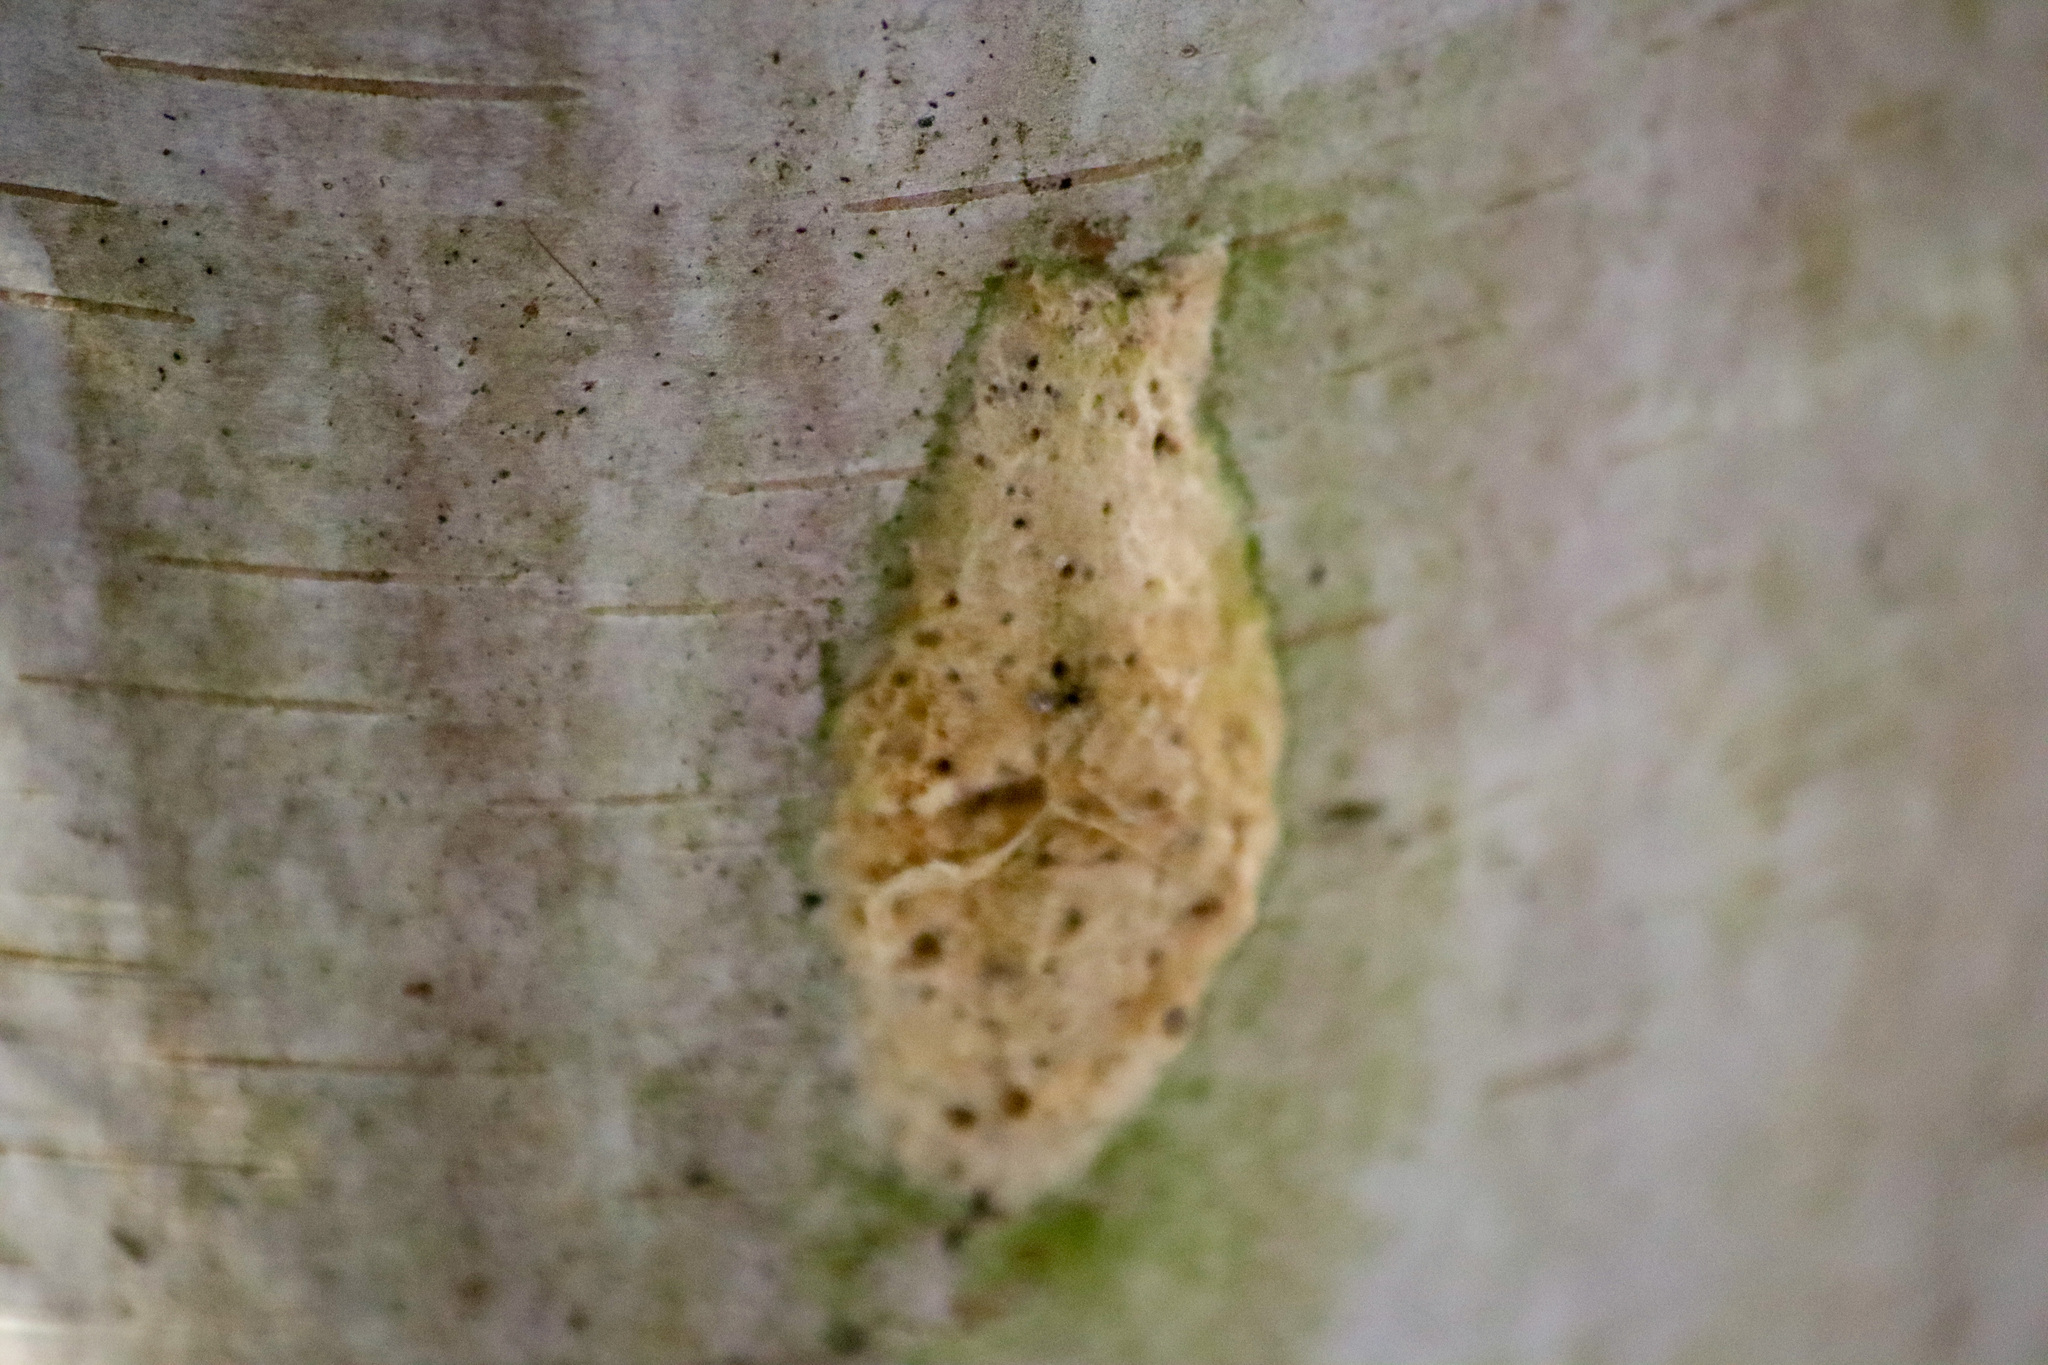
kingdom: Animalia
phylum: Arthropoda
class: Insecta
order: Lepidoptera
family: Erebidae
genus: Lymantria
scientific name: Lymantria dispar
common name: Gypsy moth
